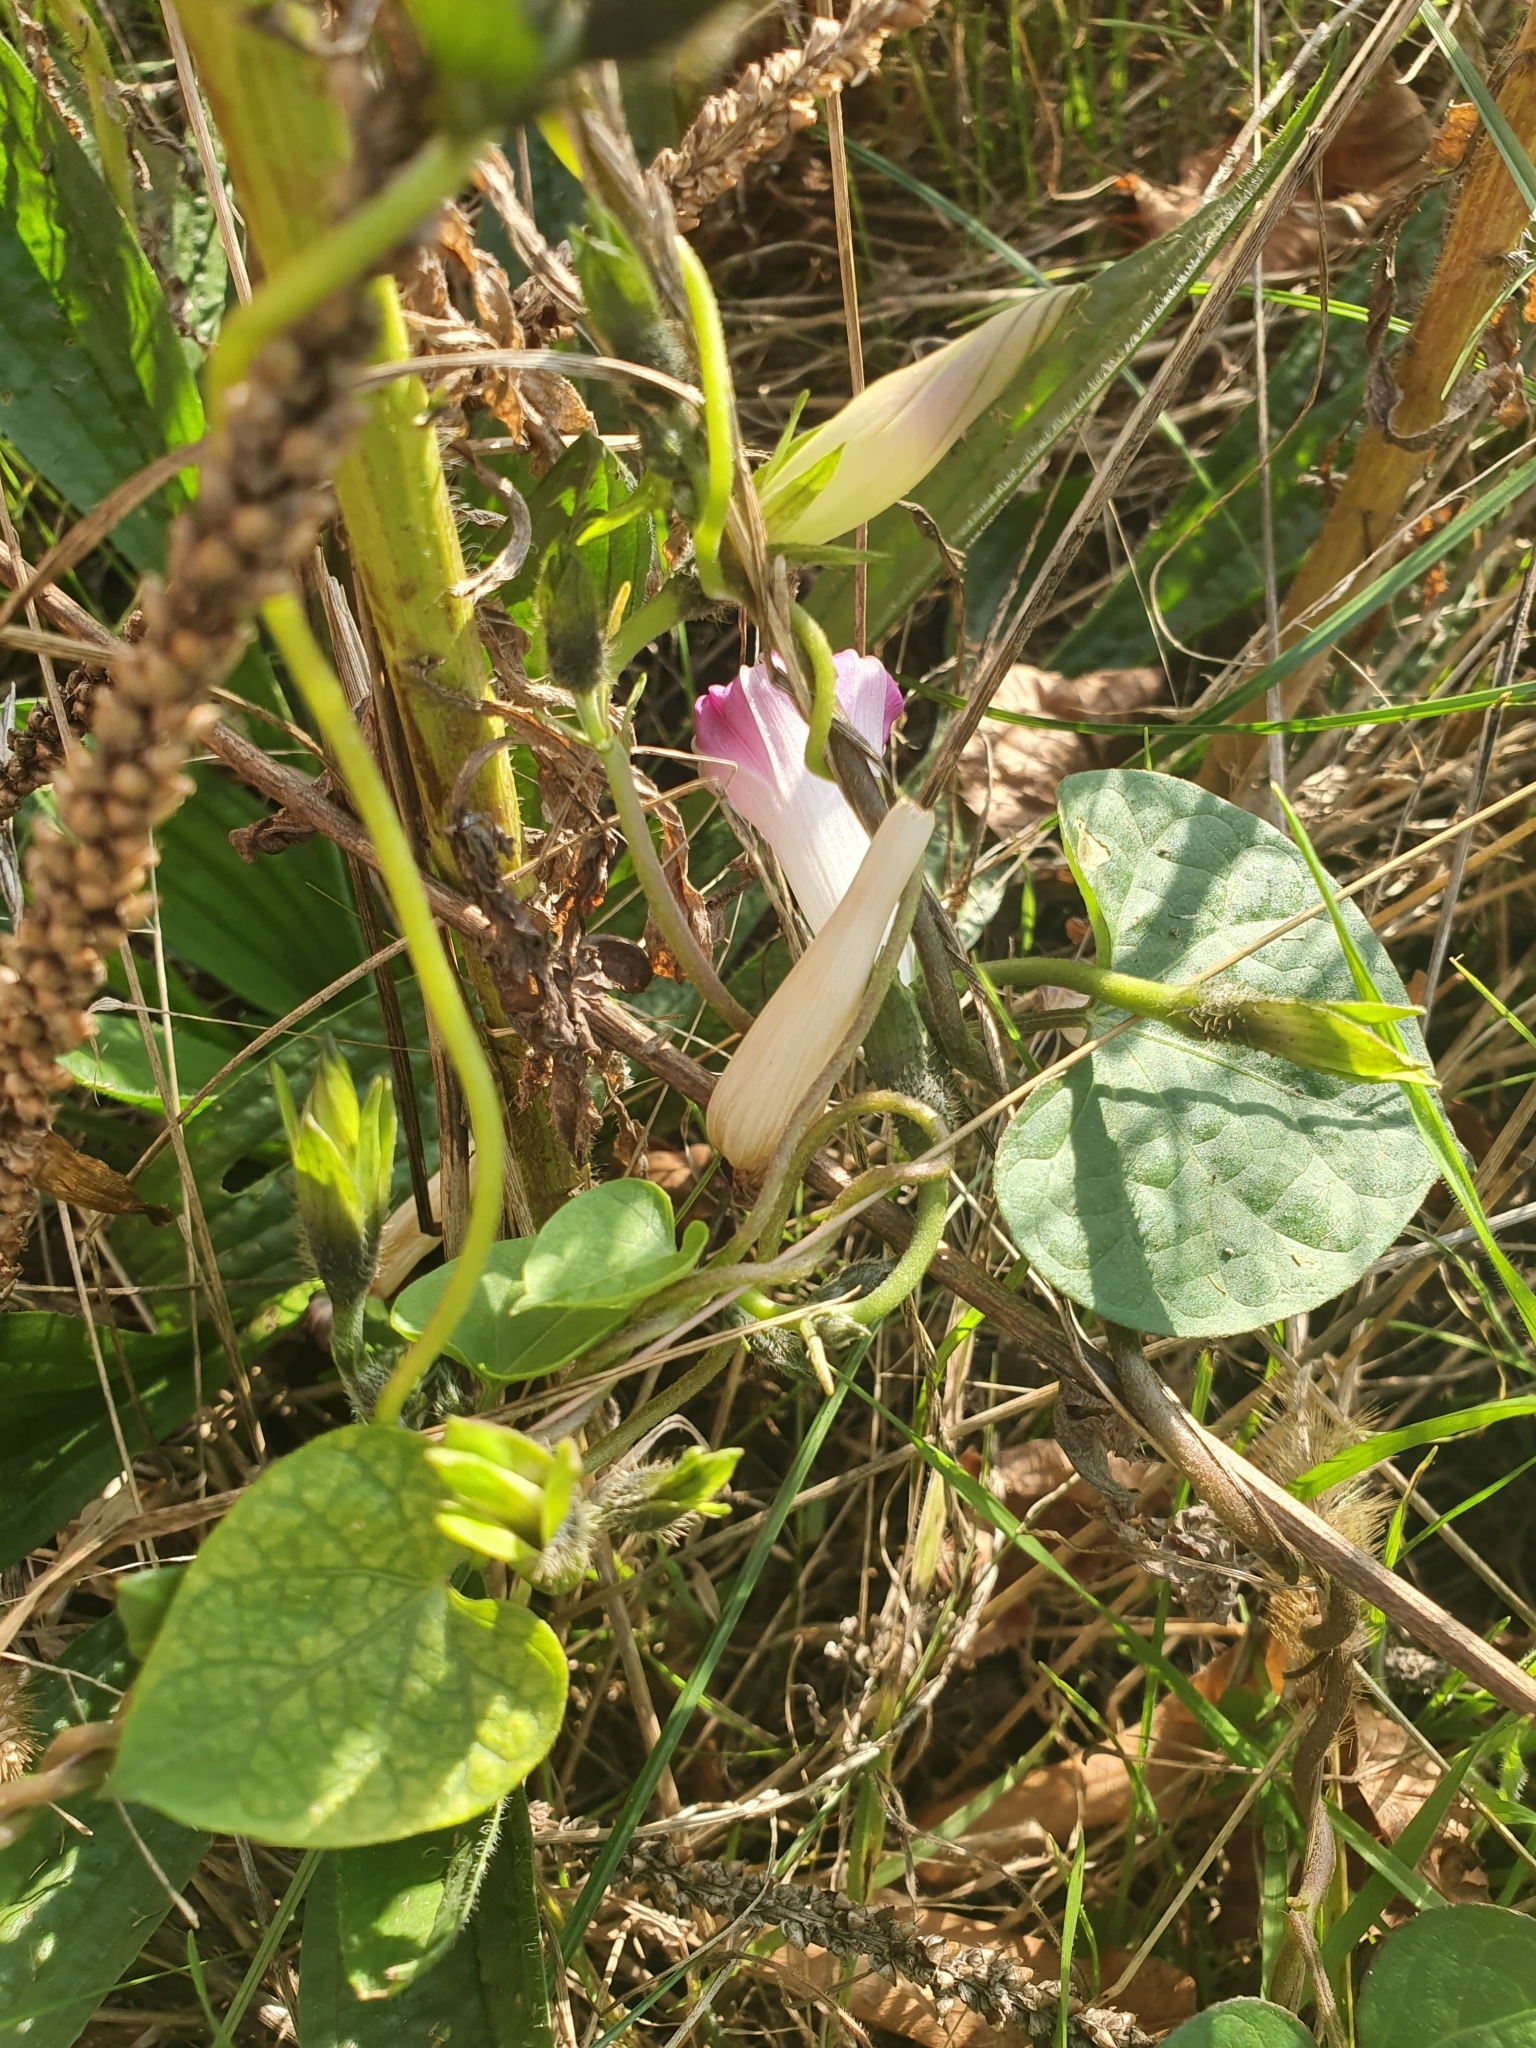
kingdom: Plantae
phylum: Tracheophyta
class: Magnoliopsida
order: Solanales
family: Convolvulaceae
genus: Ipomoea
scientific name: Ipomoea purpurea
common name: Common morning-glory
